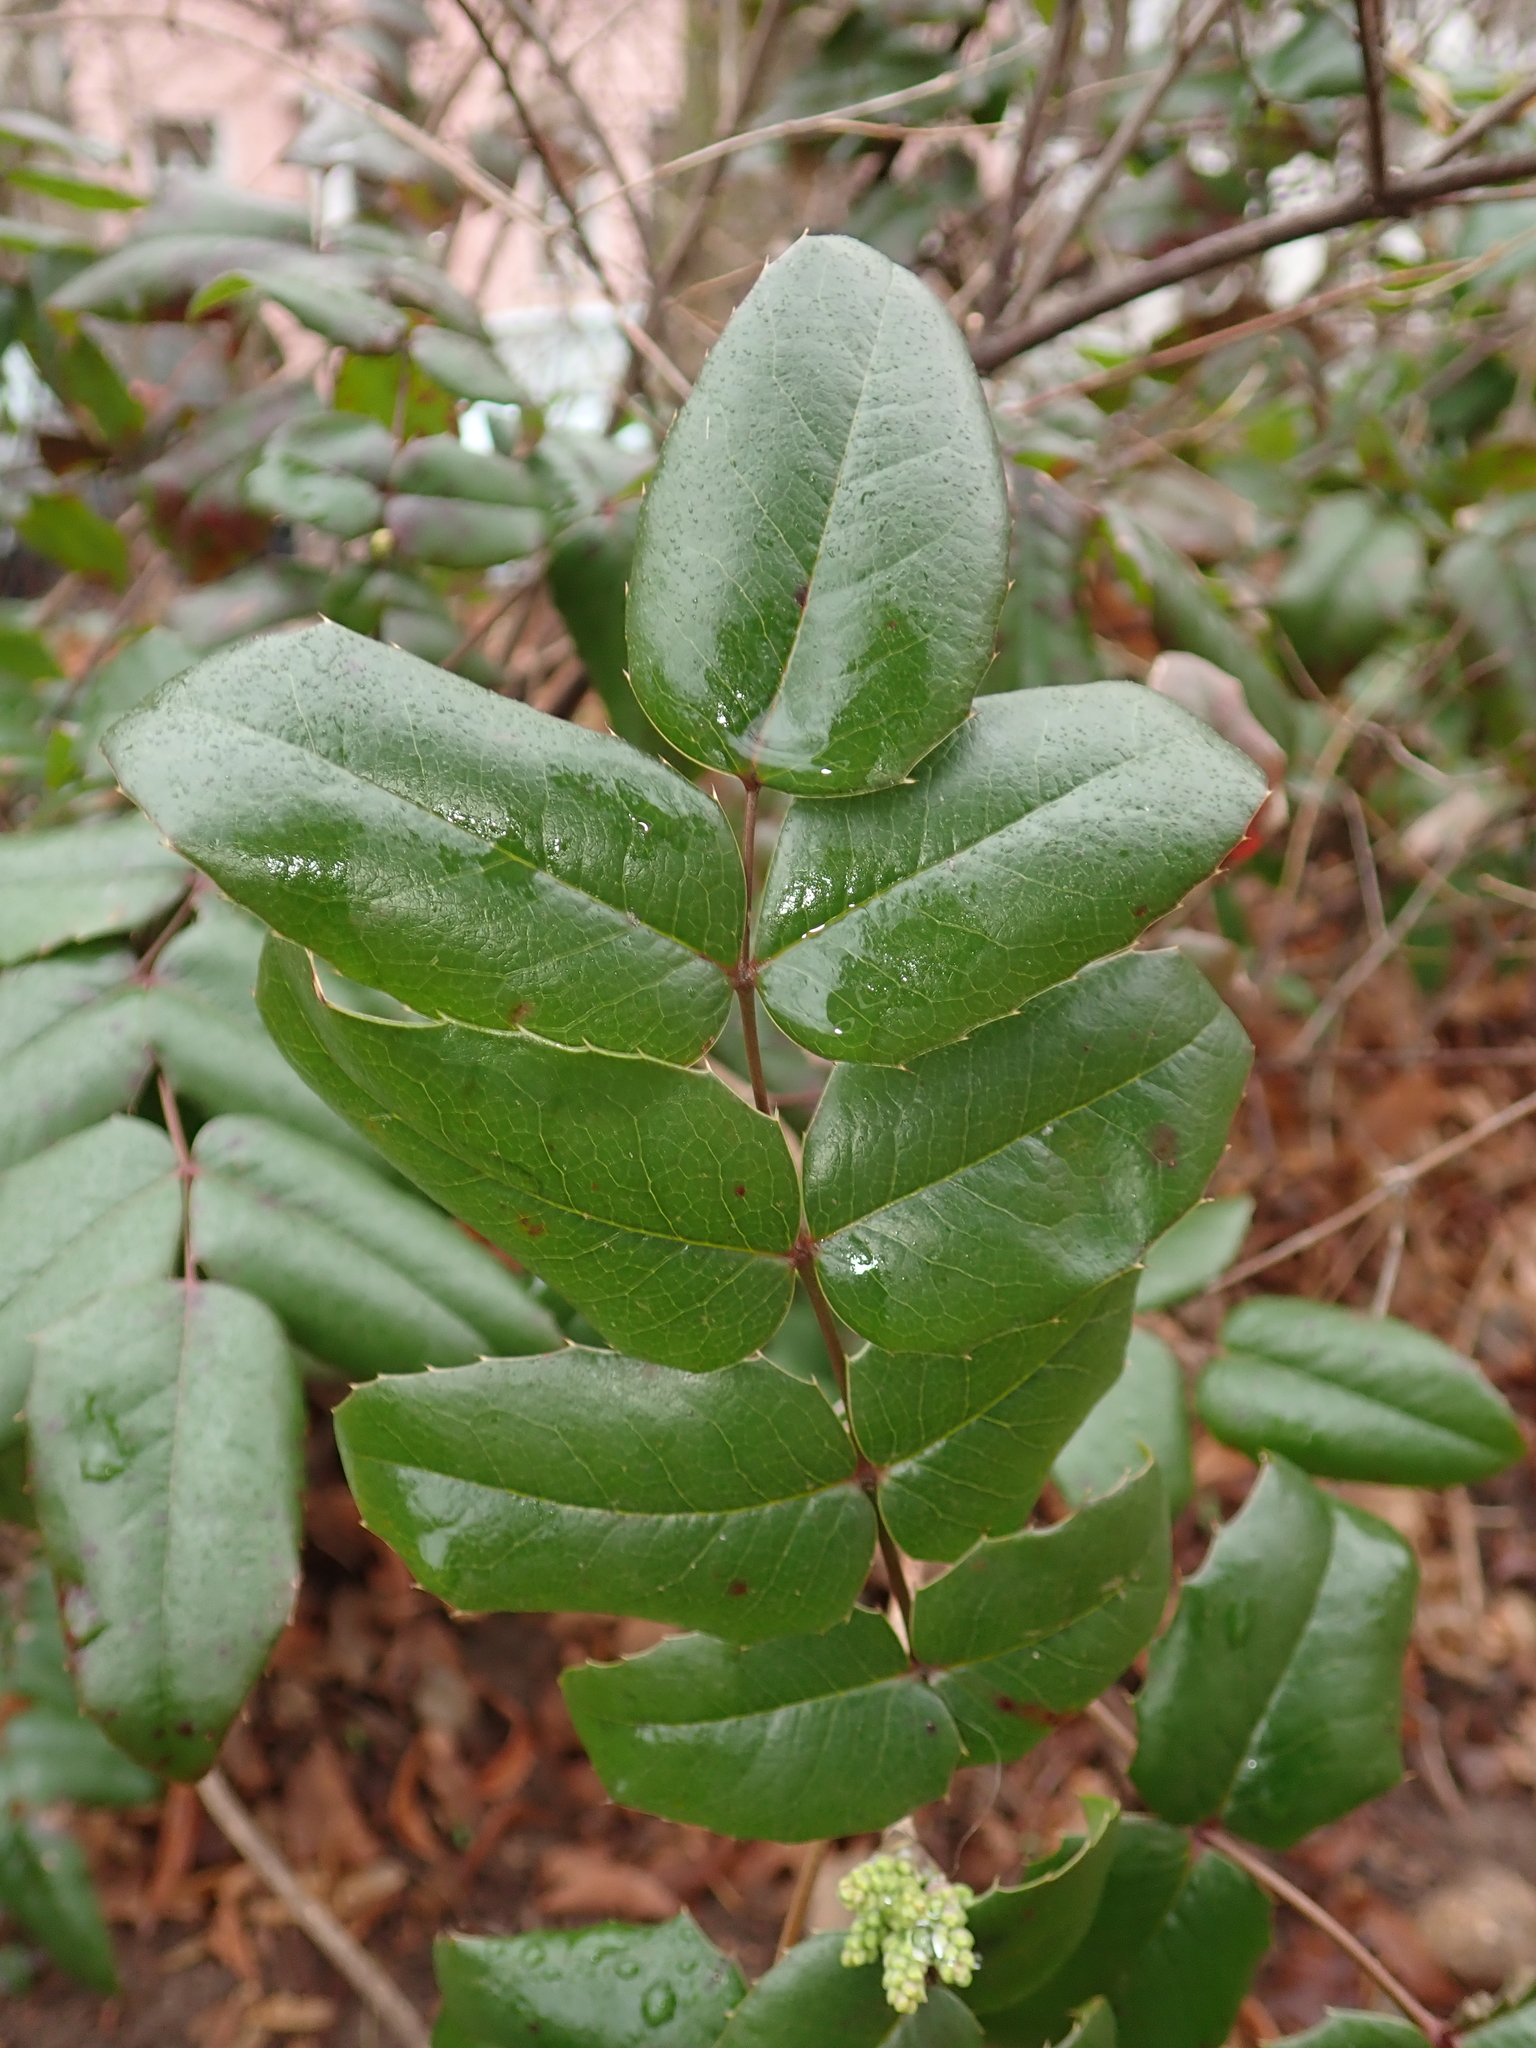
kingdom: Plantae
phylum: Tracheophyta
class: Magnoliopsida
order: Ranunculales
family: Berberidaceae
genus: Mahonia
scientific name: Mahonia aquifolium
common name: Oregon-grape
